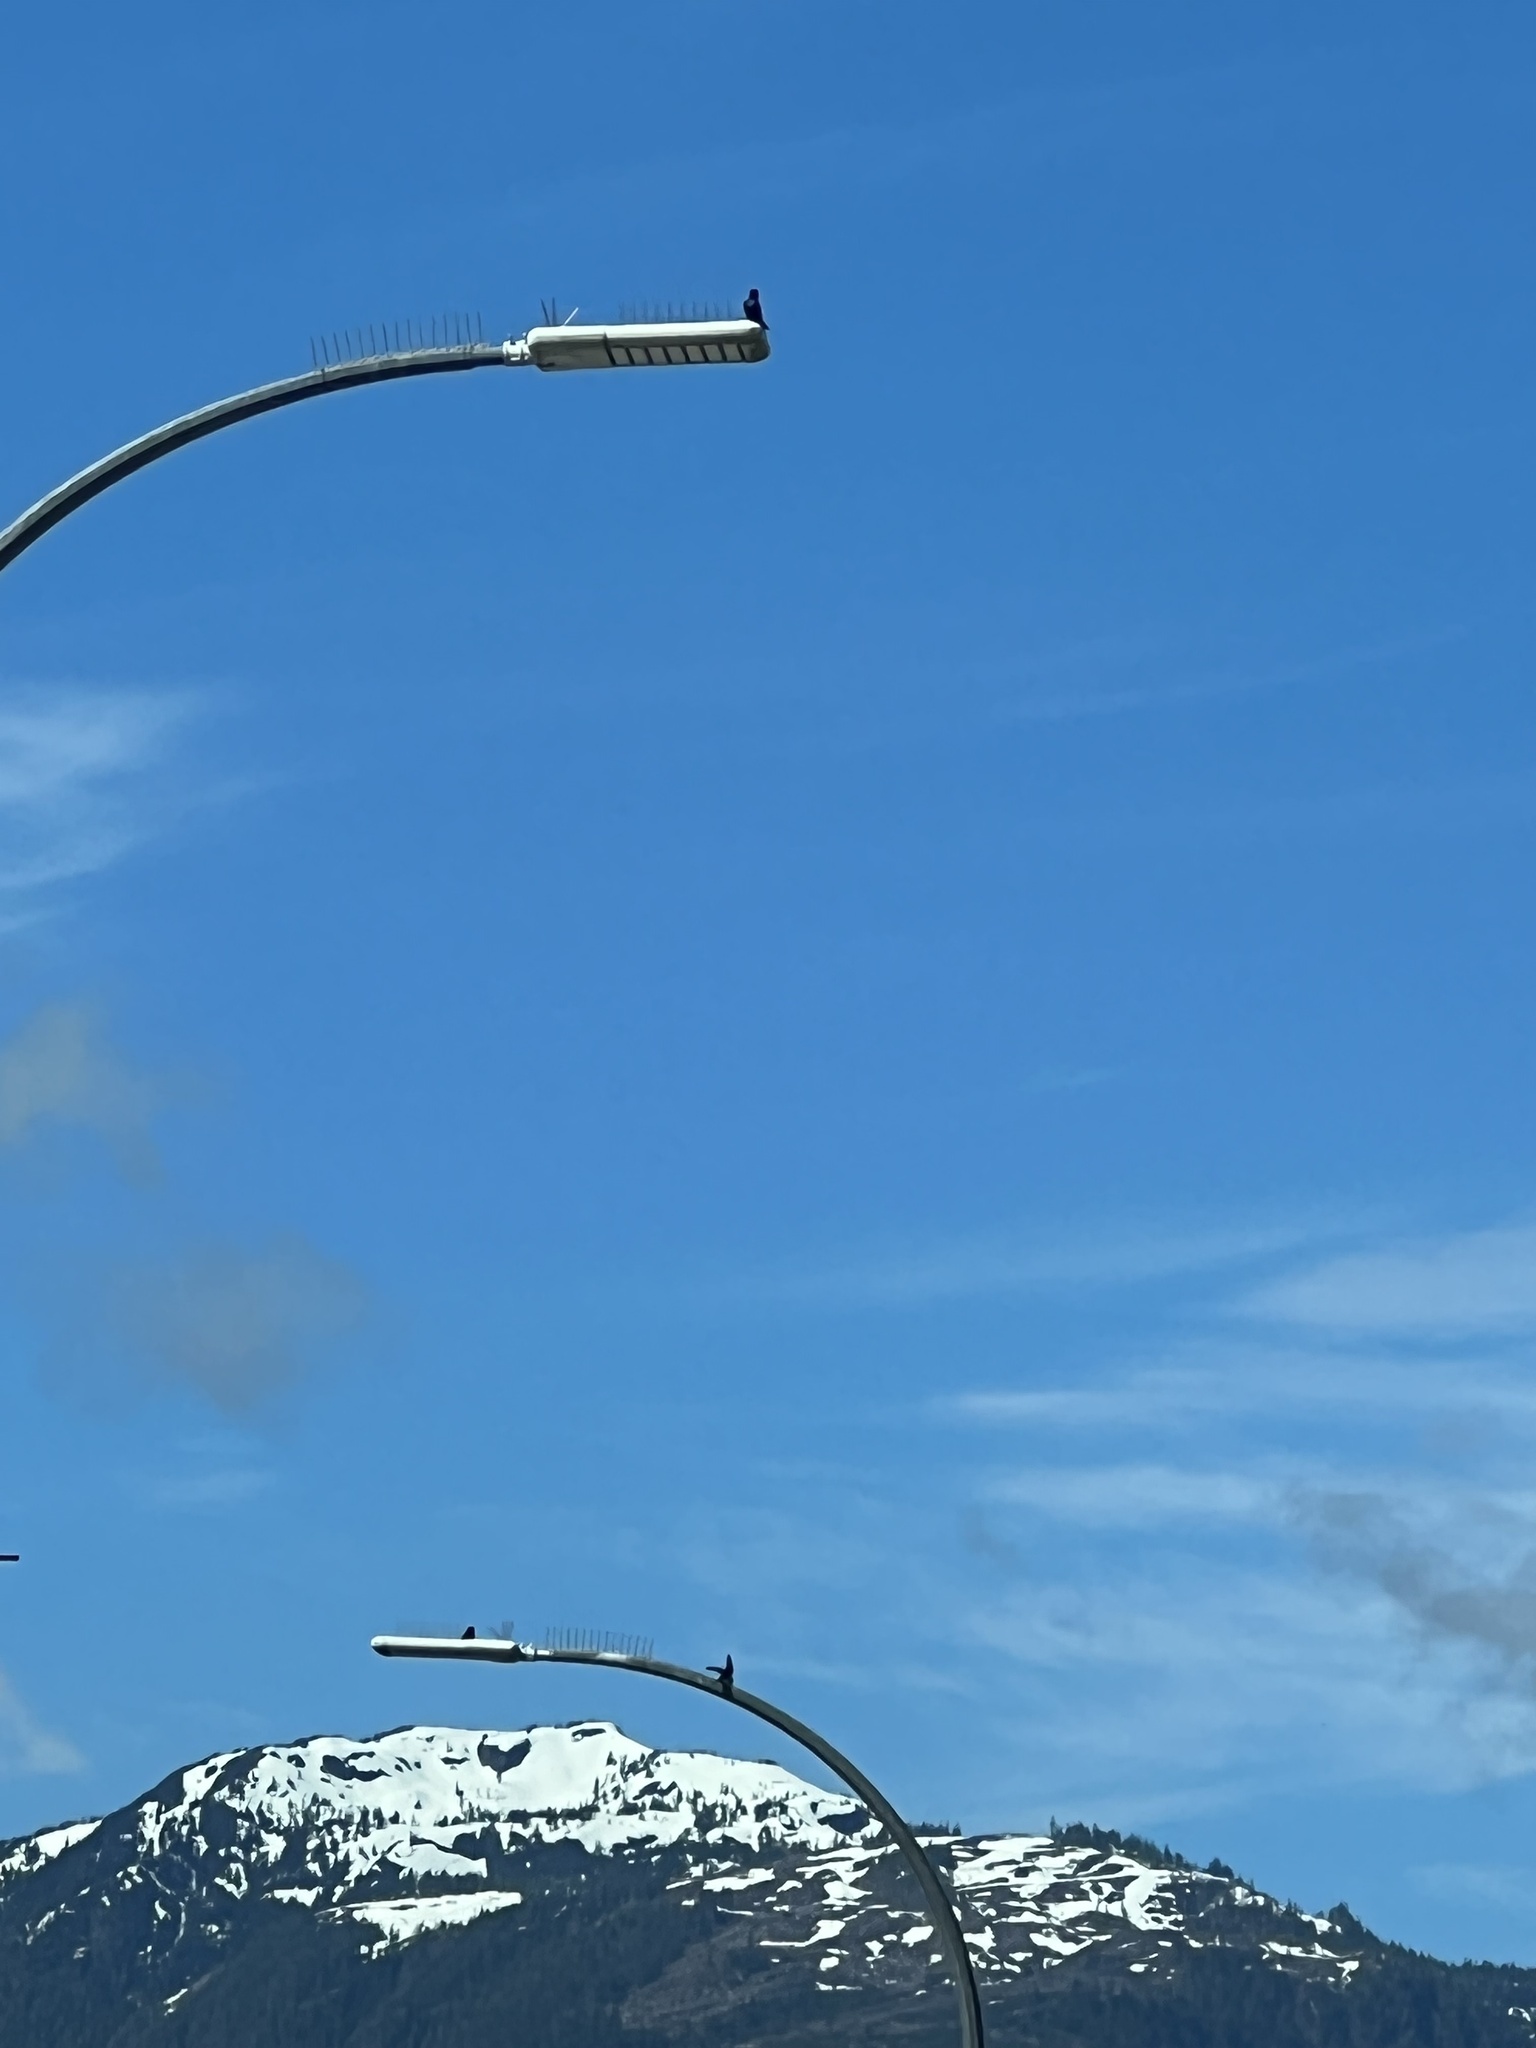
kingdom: Animalia
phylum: Chordata
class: Aves
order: Passeriformes
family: Hirundinidae
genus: Progne
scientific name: Progne subis
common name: Purple martin
